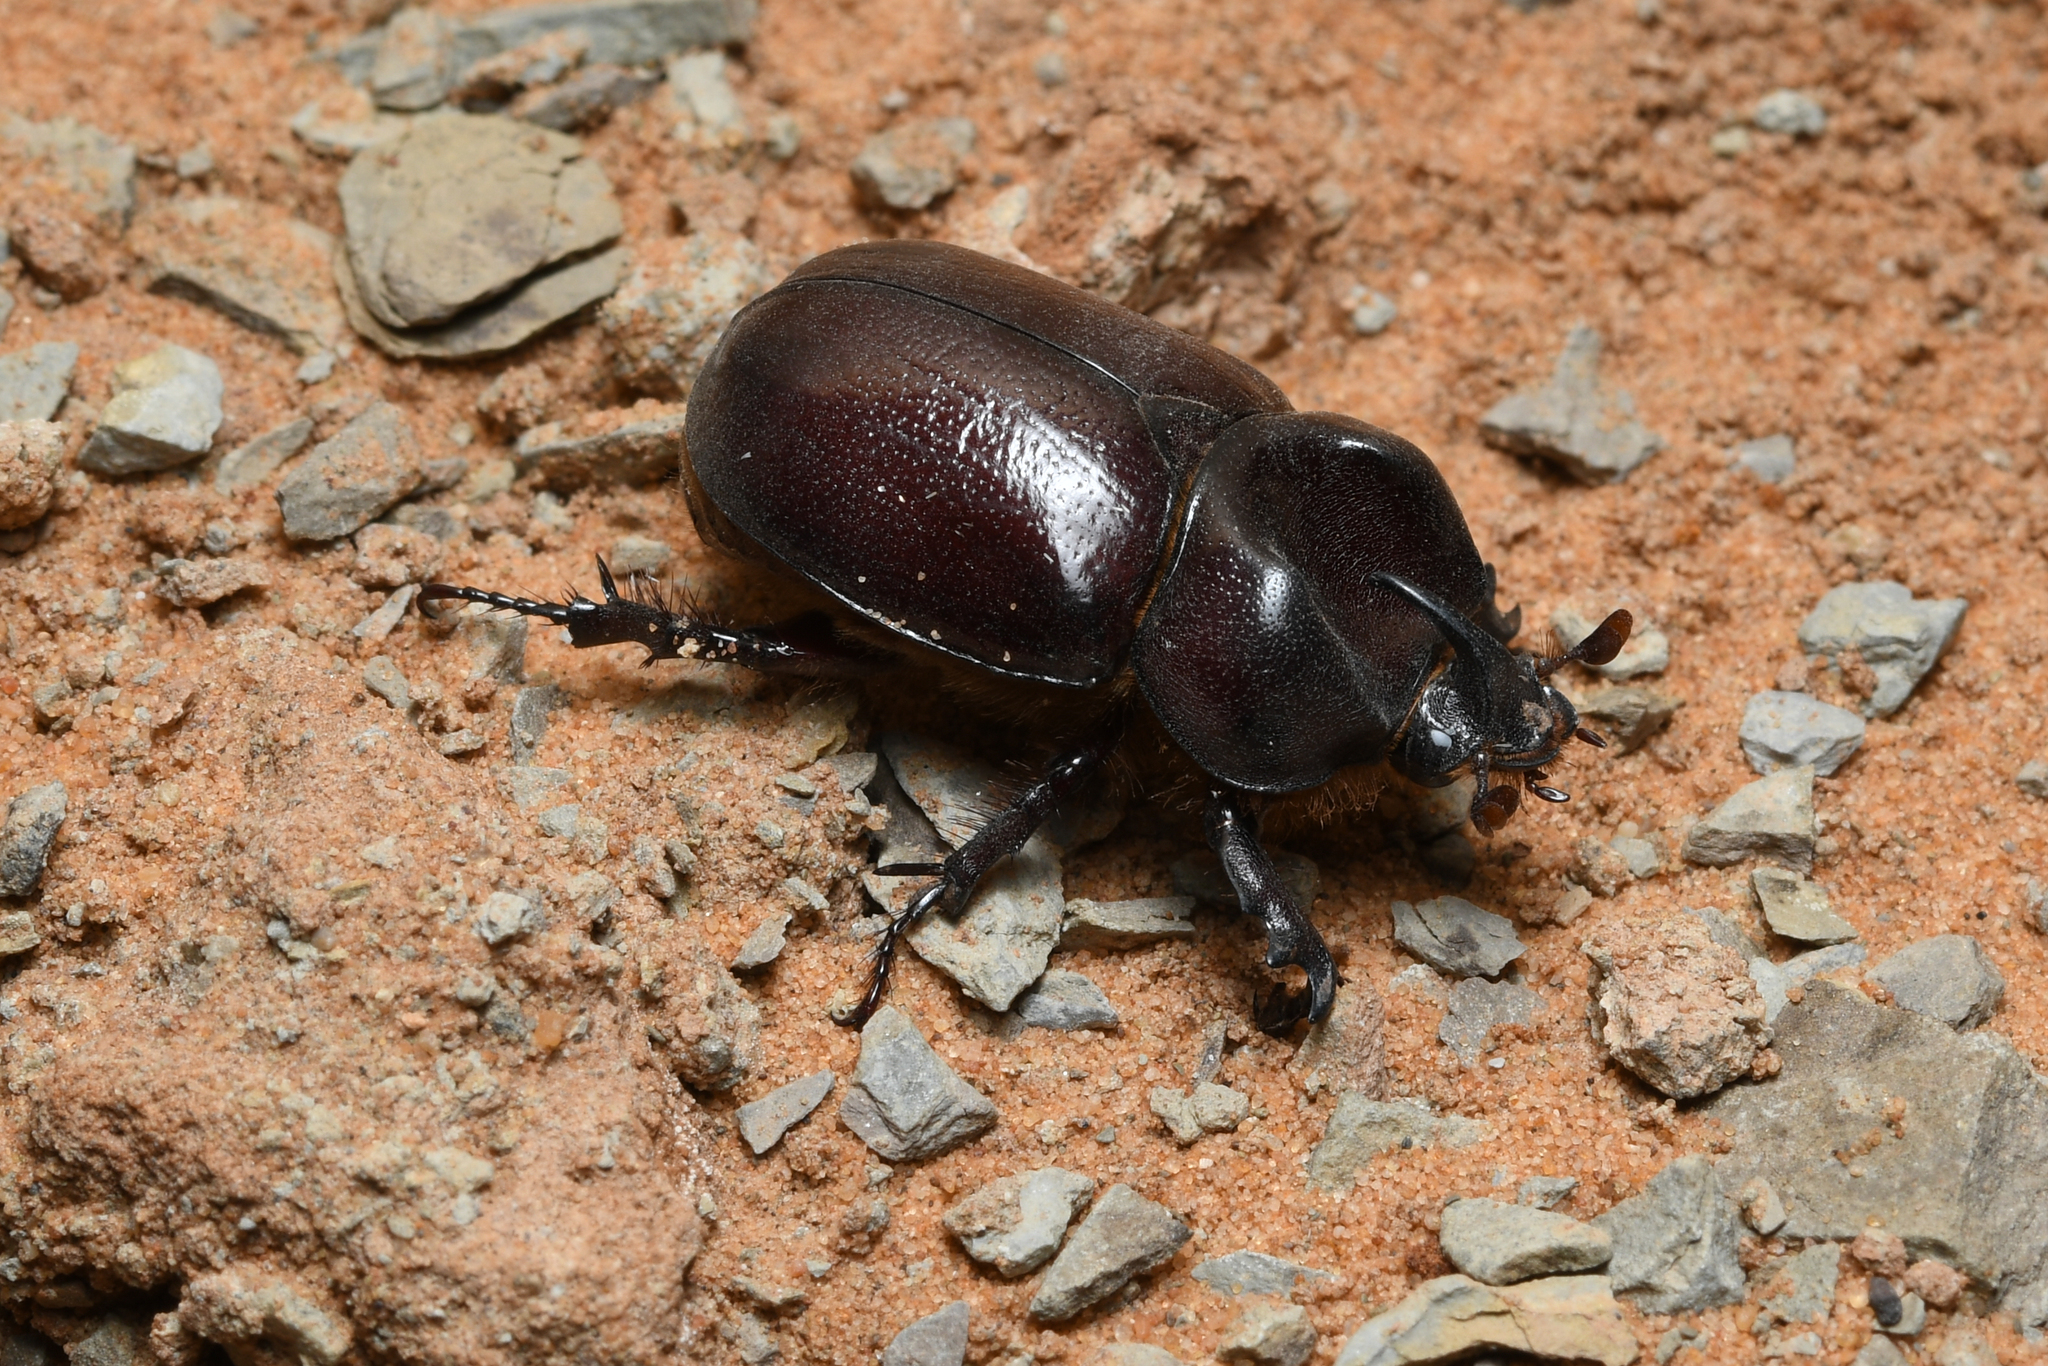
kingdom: Animalia
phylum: Arthropoda
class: Insecta
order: Coleoptera
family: Scarabaeidae
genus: Phyllognathus
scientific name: Phyllognathus excavatus
